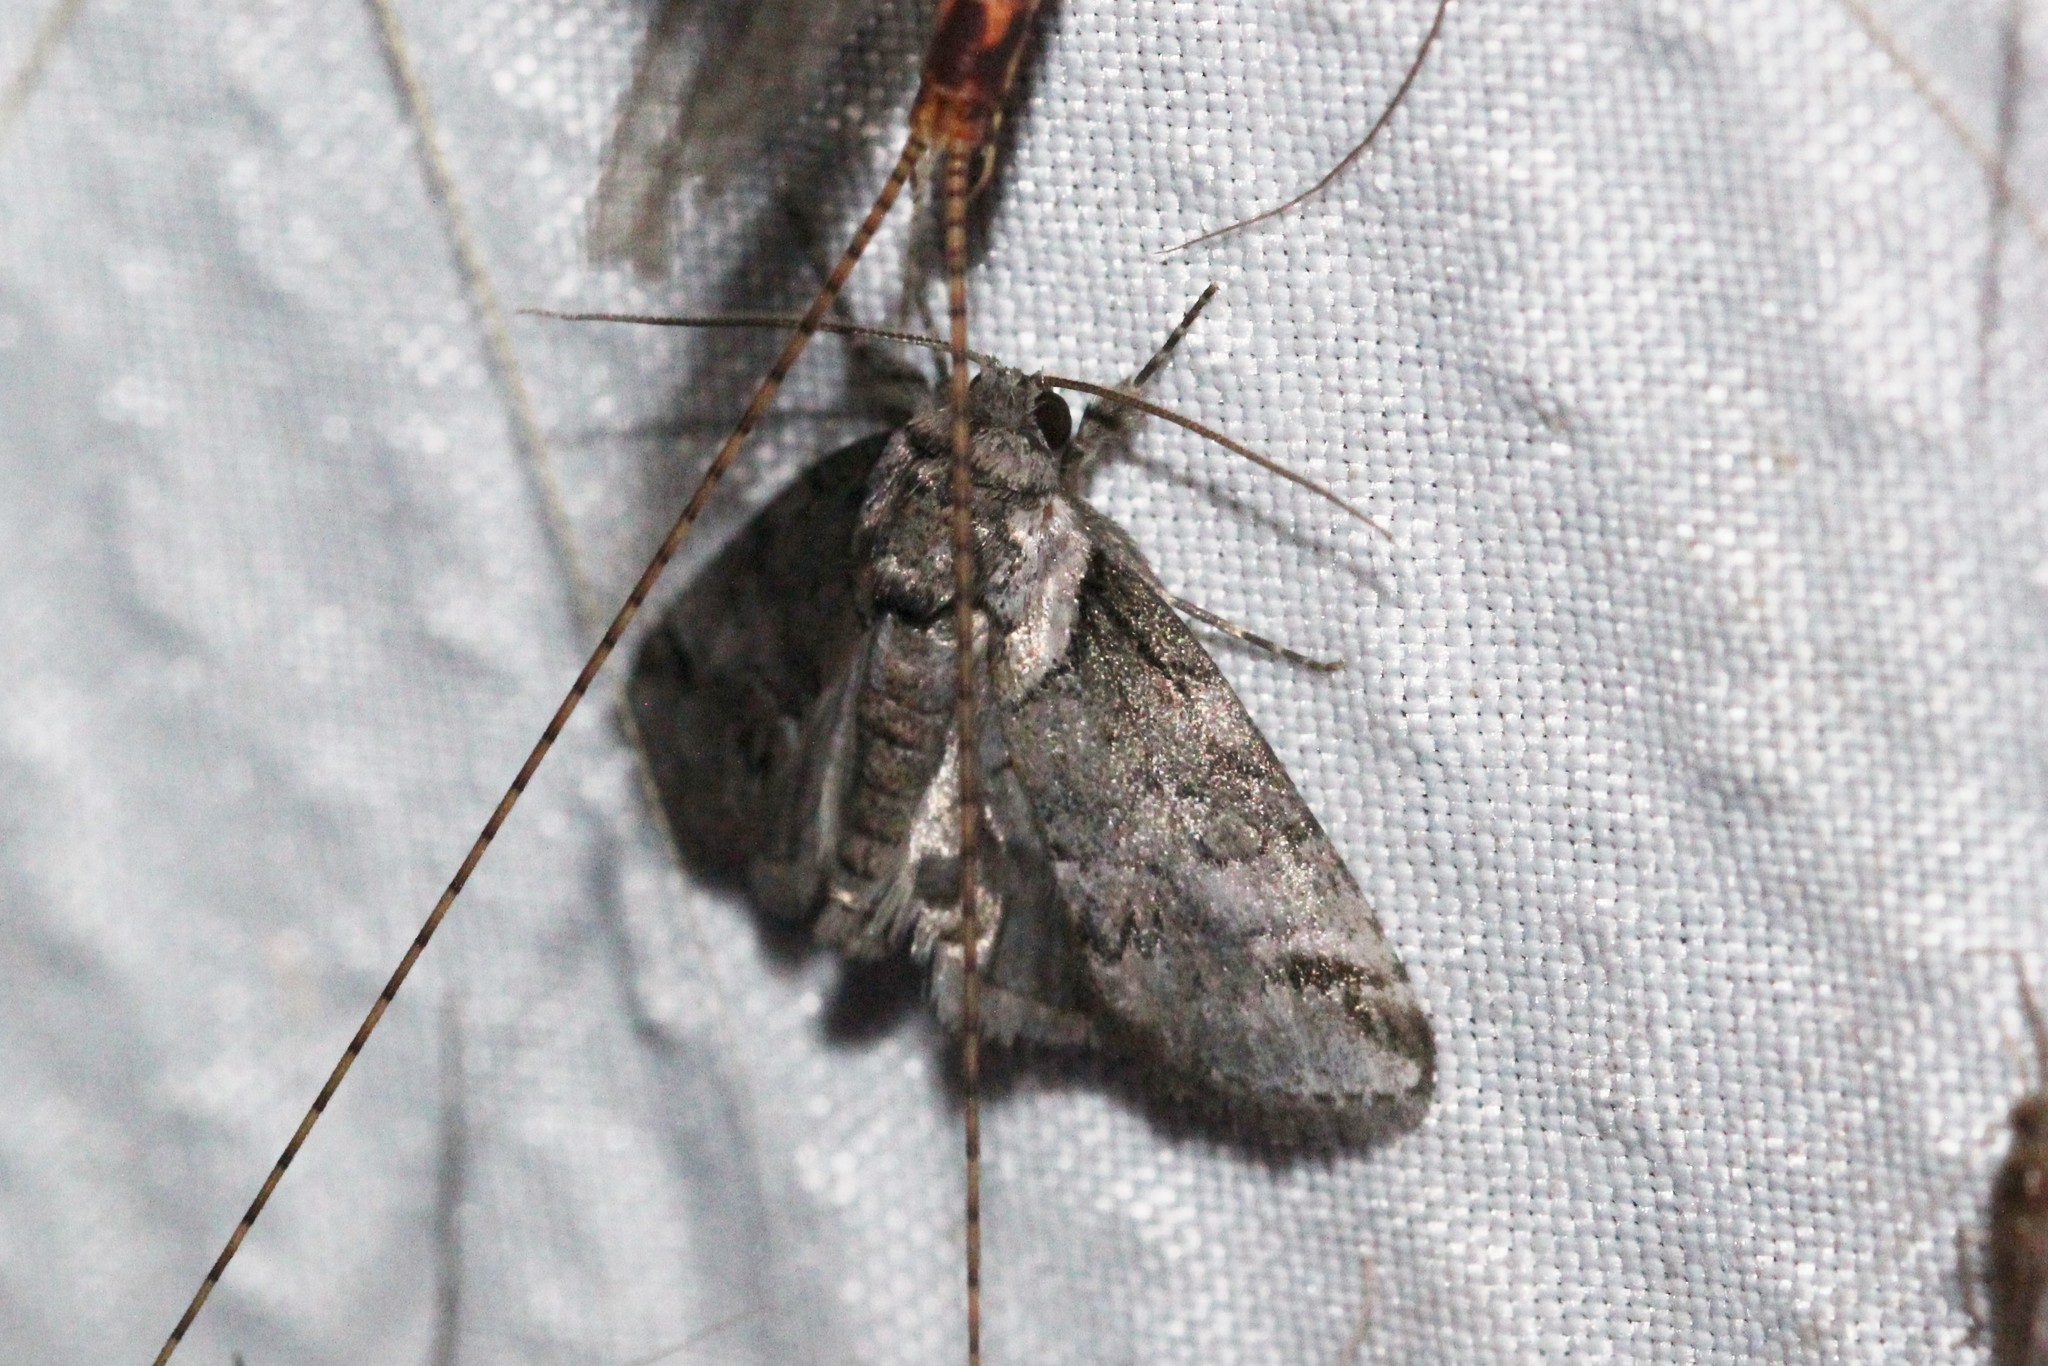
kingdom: Animalia
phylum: Arthropoda
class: Insecta
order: Lepidoptera
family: Nolidae
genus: Baileya
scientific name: Baileya australis
